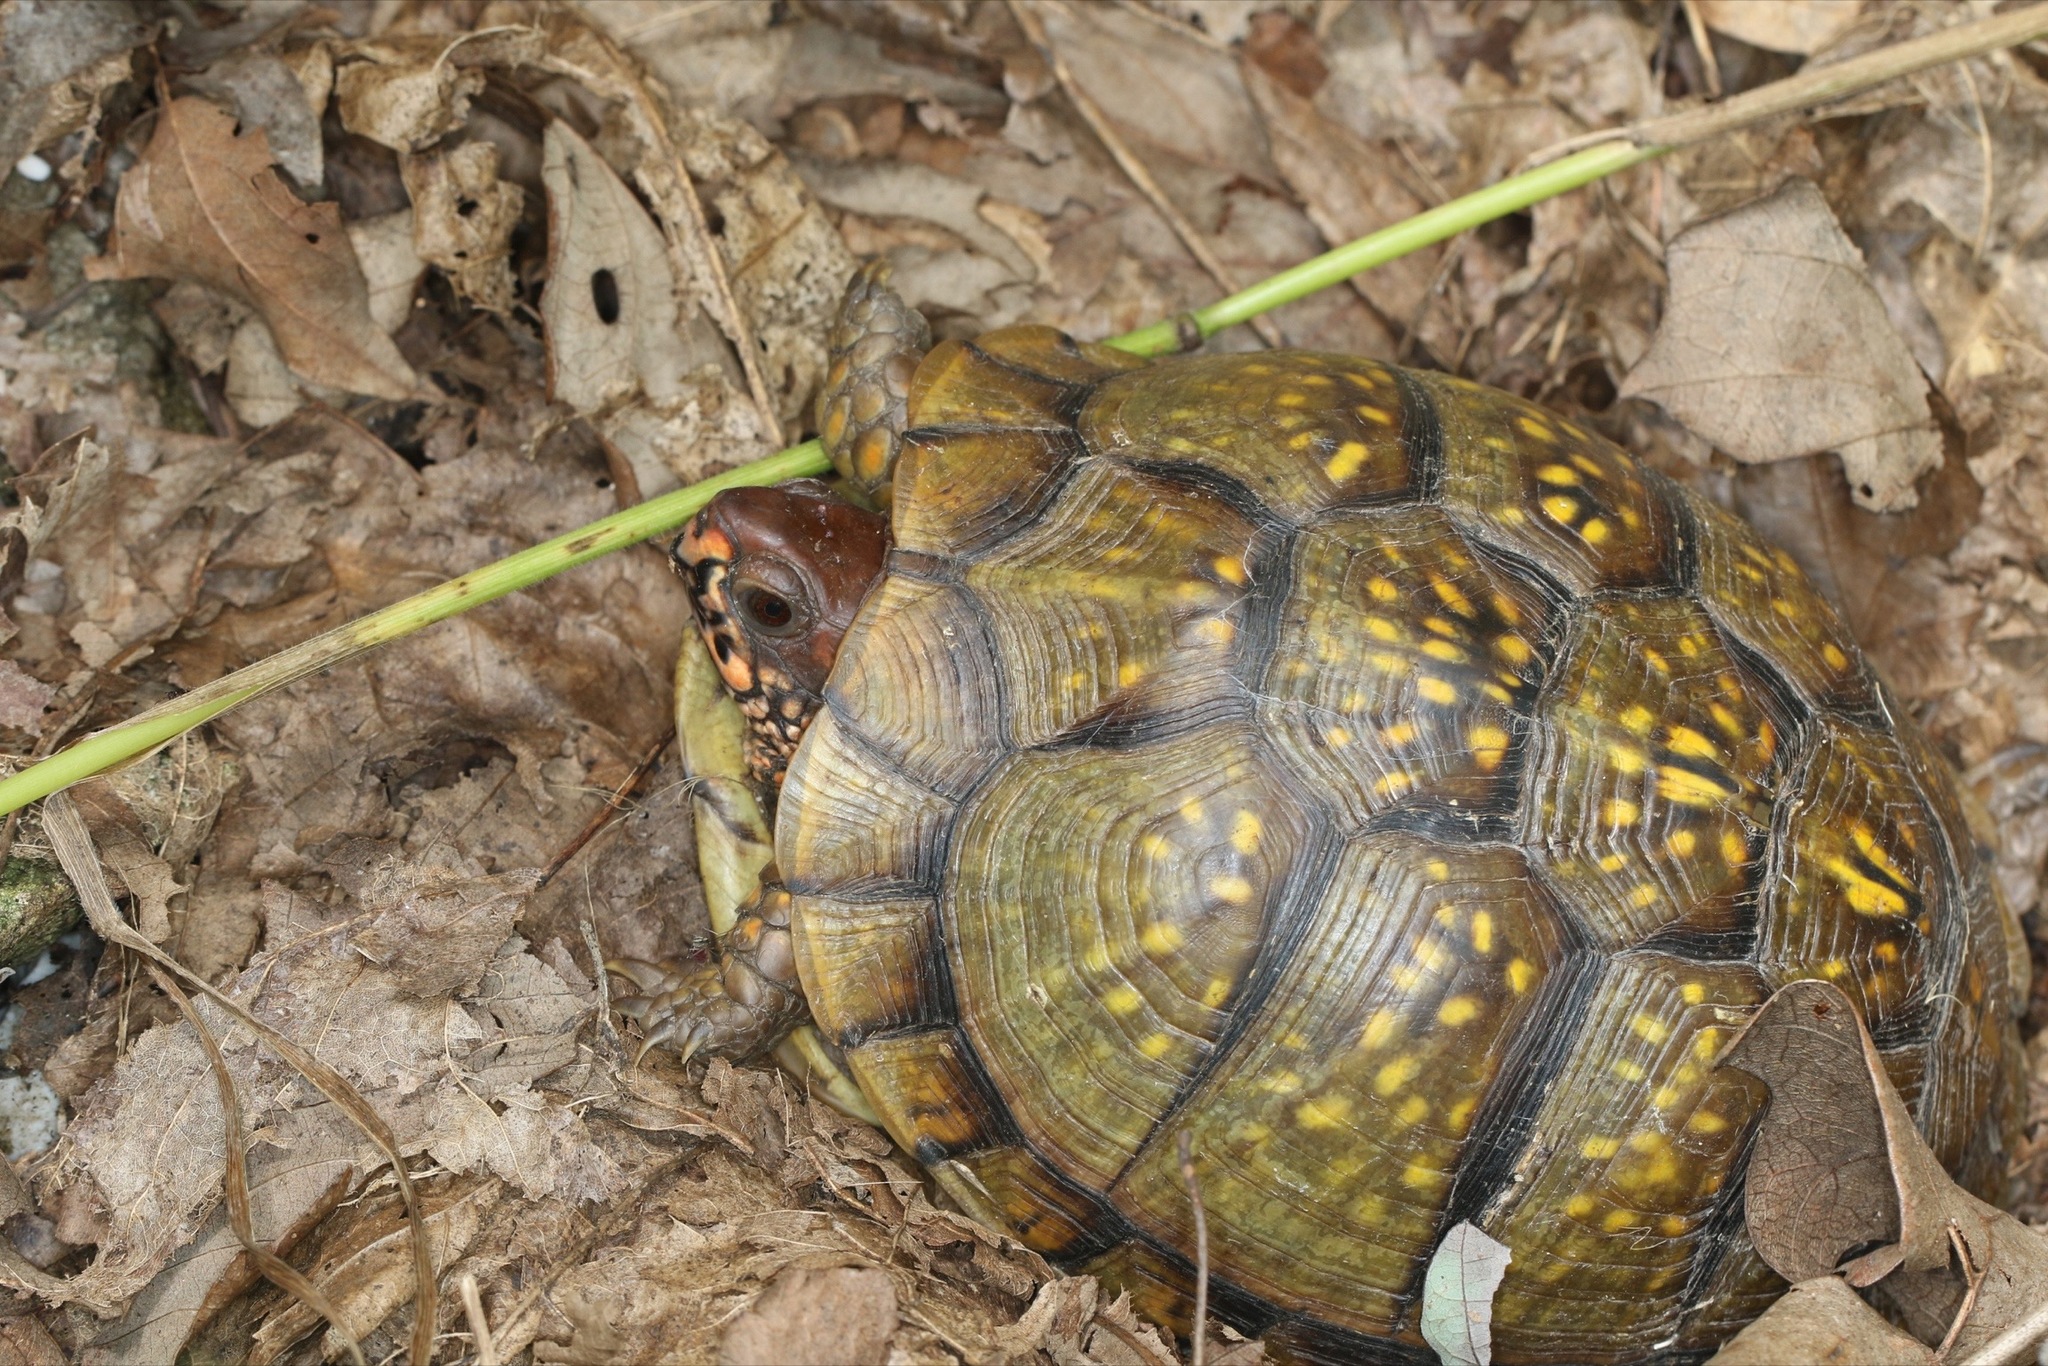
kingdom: Animalia
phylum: Chordata
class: Testudines
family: Emydidae
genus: Terrapene
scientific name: Terrapene carolina
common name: Common box turtle
